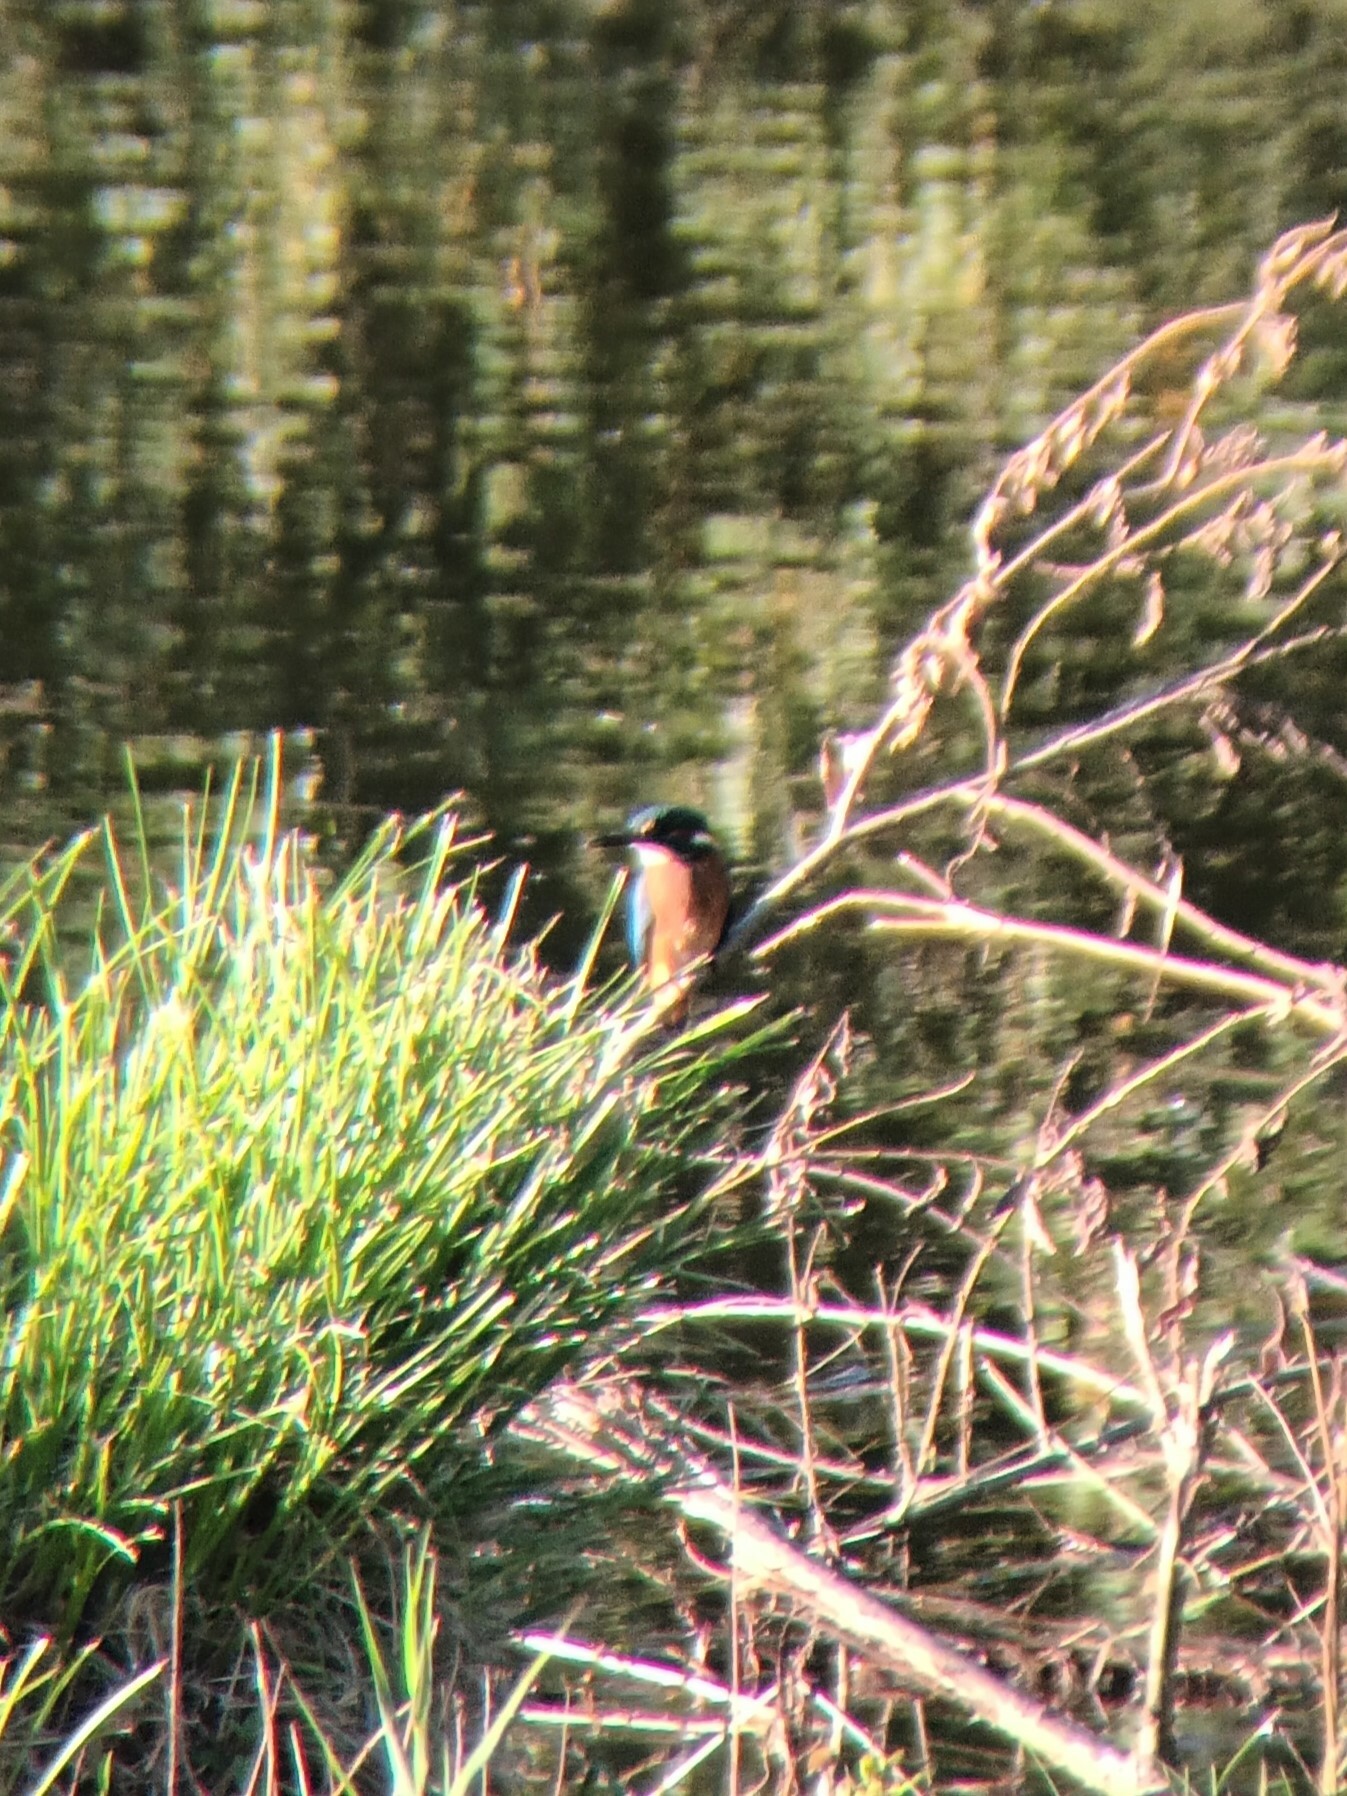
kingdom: Animalia
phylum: Chordata
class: Aves
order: Coraciiformes
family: Alcedinidae
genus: Alcedo
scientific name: Alcedo atthis
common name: Common kingfisher
